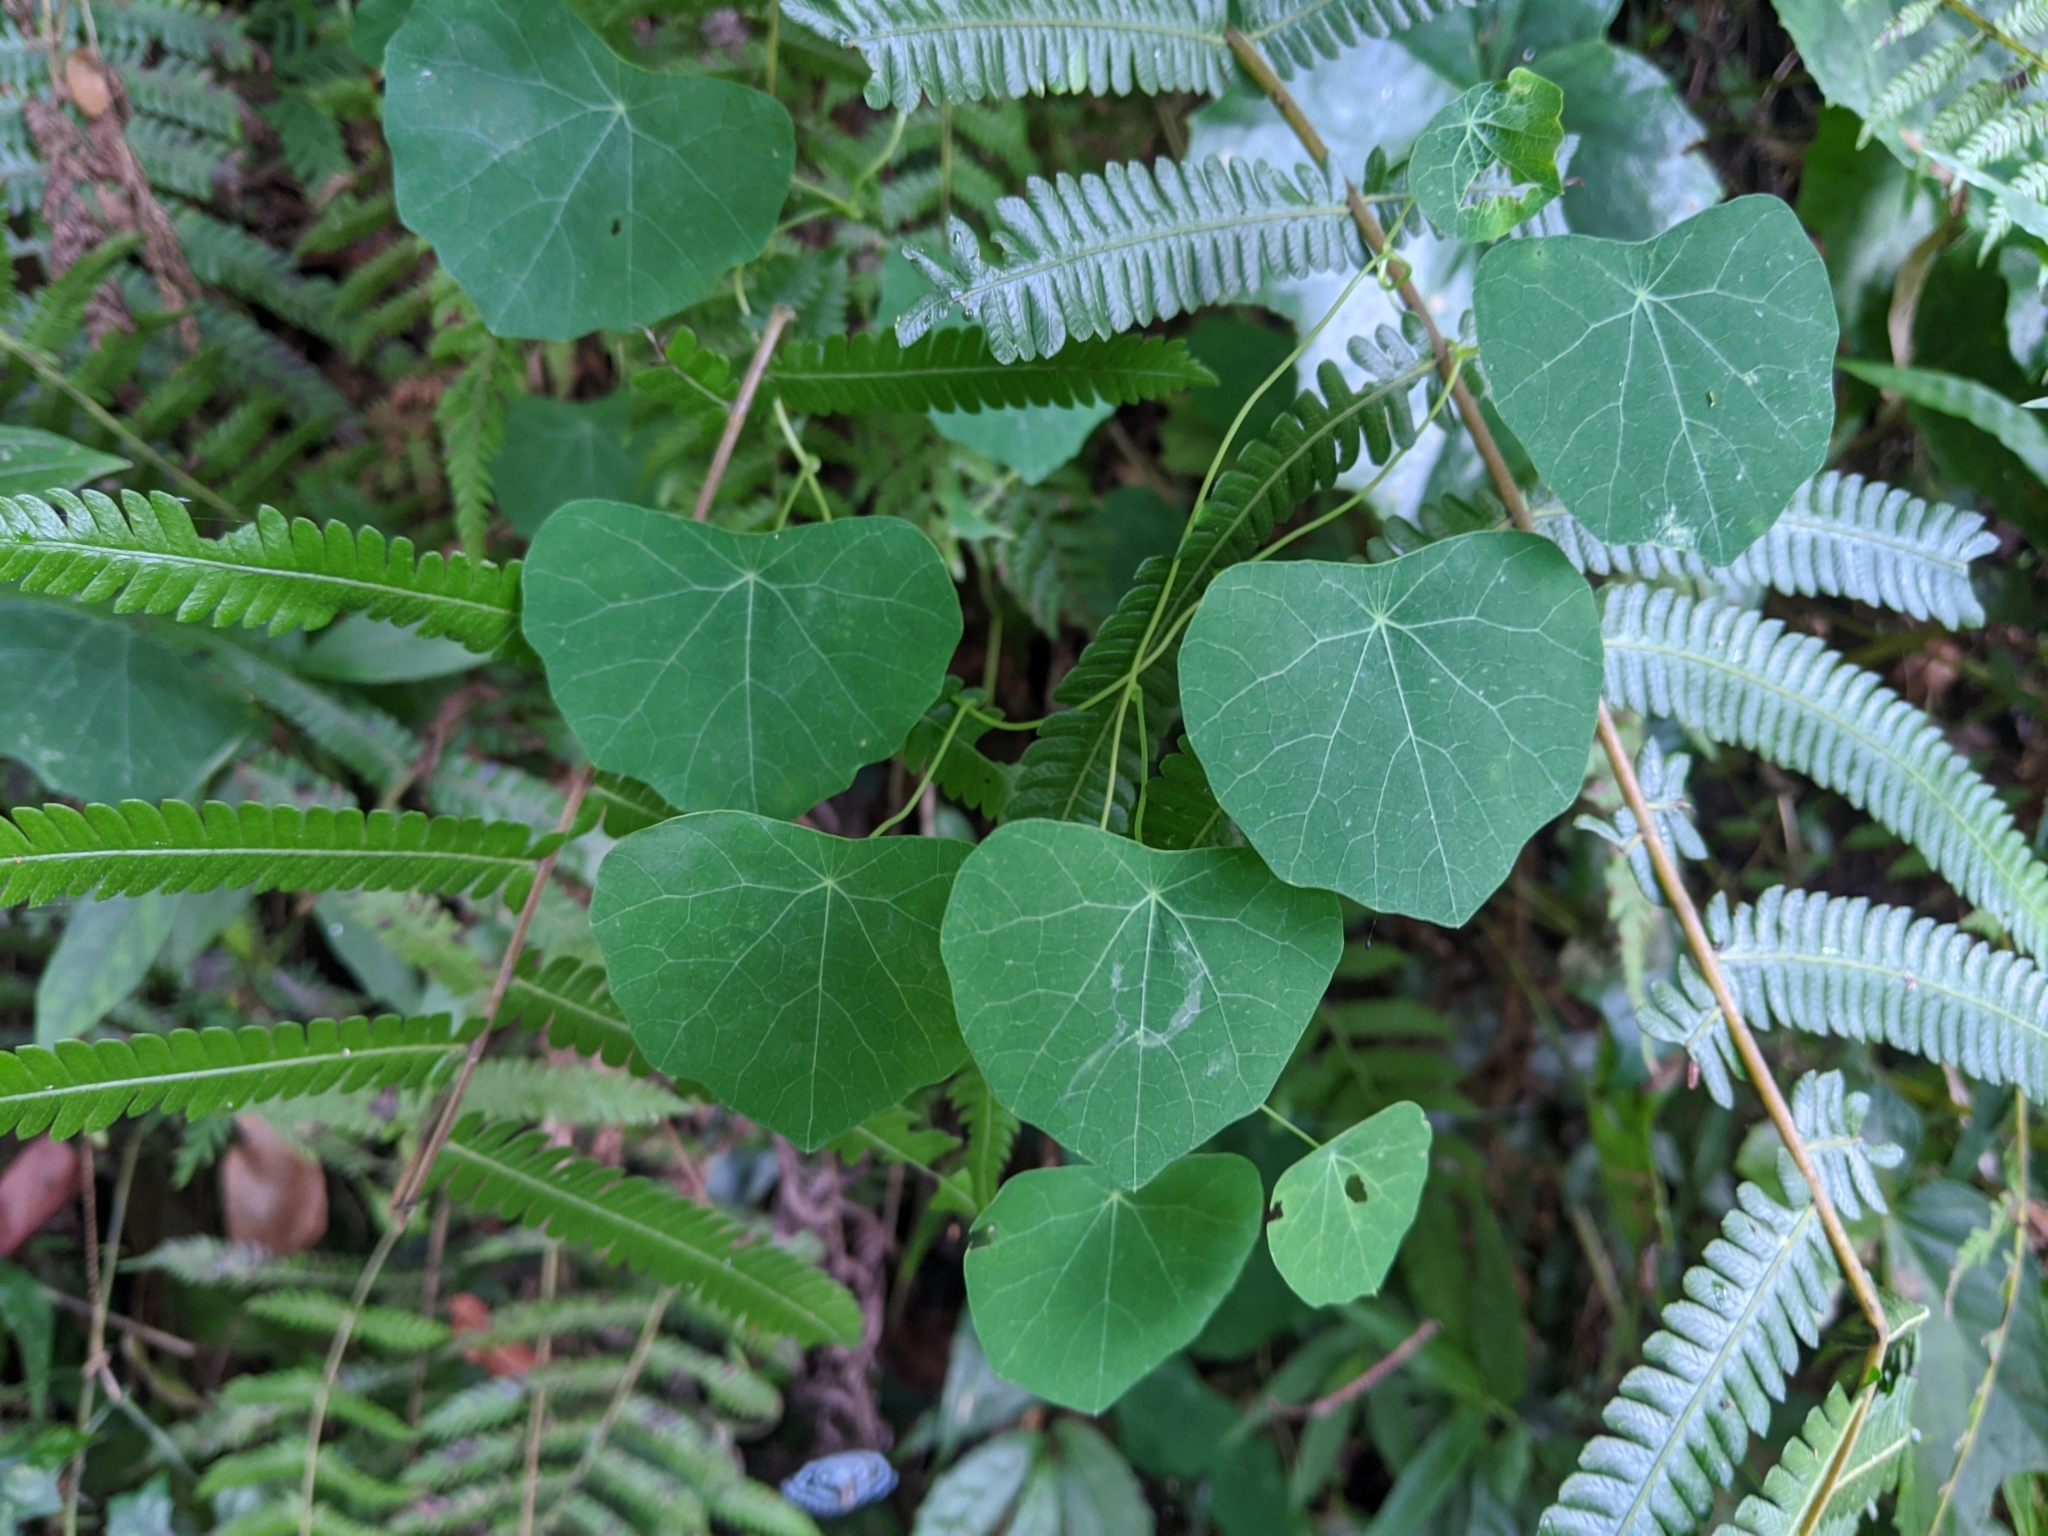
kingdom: Plantae
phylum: Tracheophyta
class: Magnoliopsida
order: Ranunculales
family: Menispermaceae
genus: Stephania
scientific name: Stephania cephalantha
